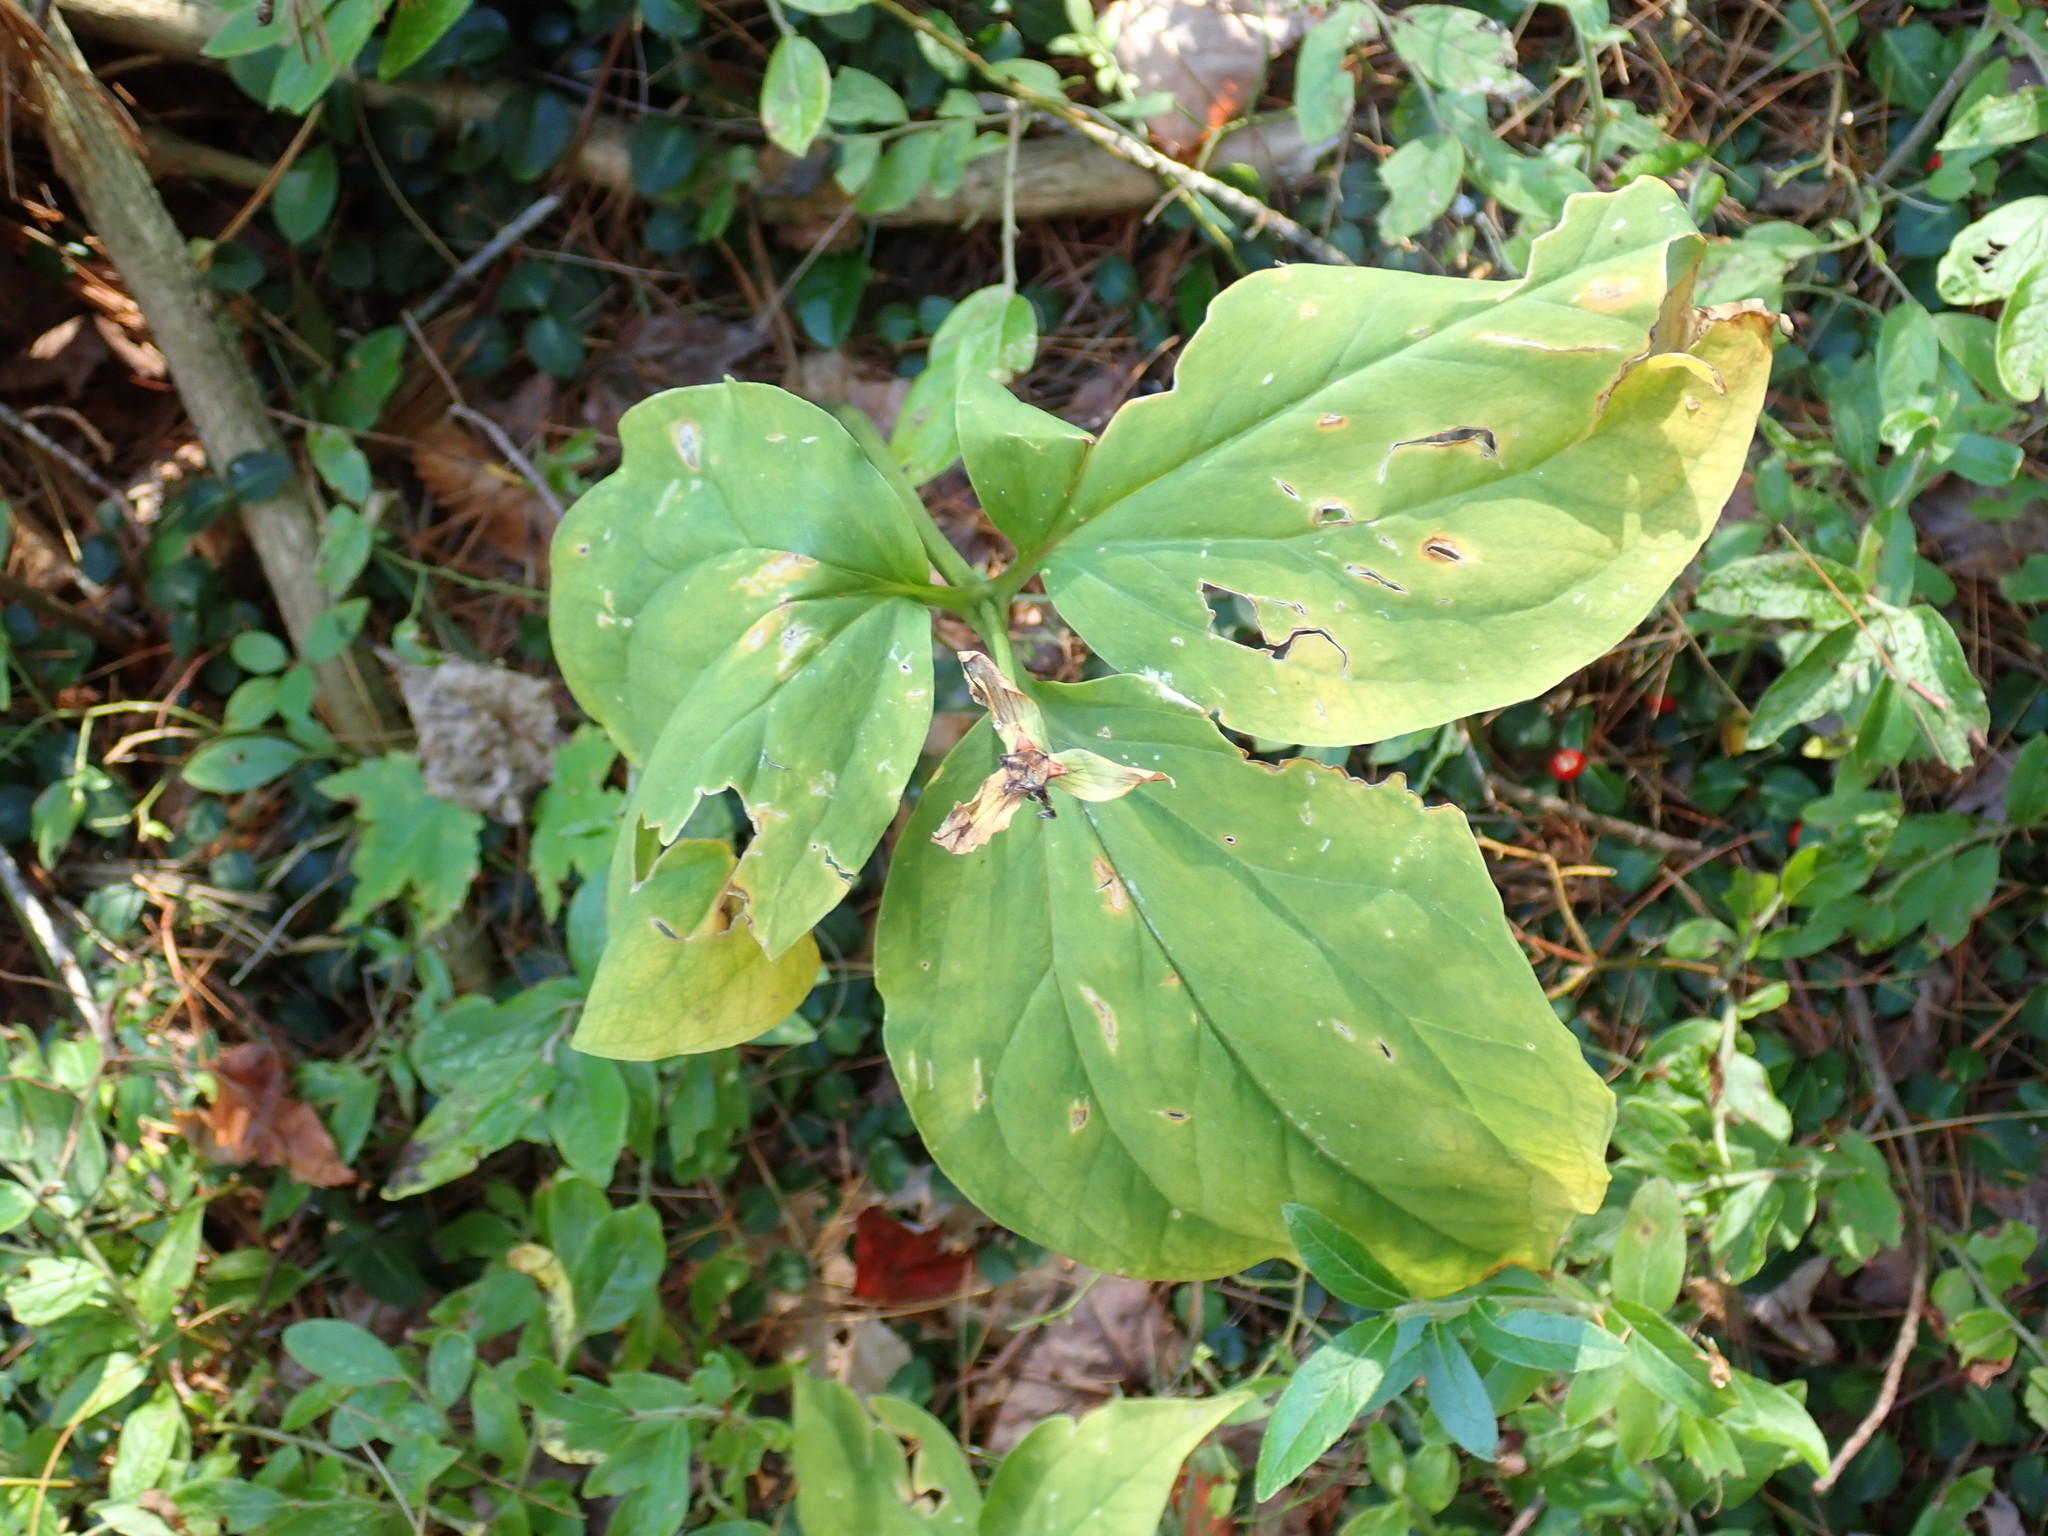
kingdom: Plantae
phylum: Tracheophyta
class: Liliopsida
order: Liliales
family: Melanthiaceae
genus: Trillium
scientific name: Trillium undulatum
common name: Paint trillium
